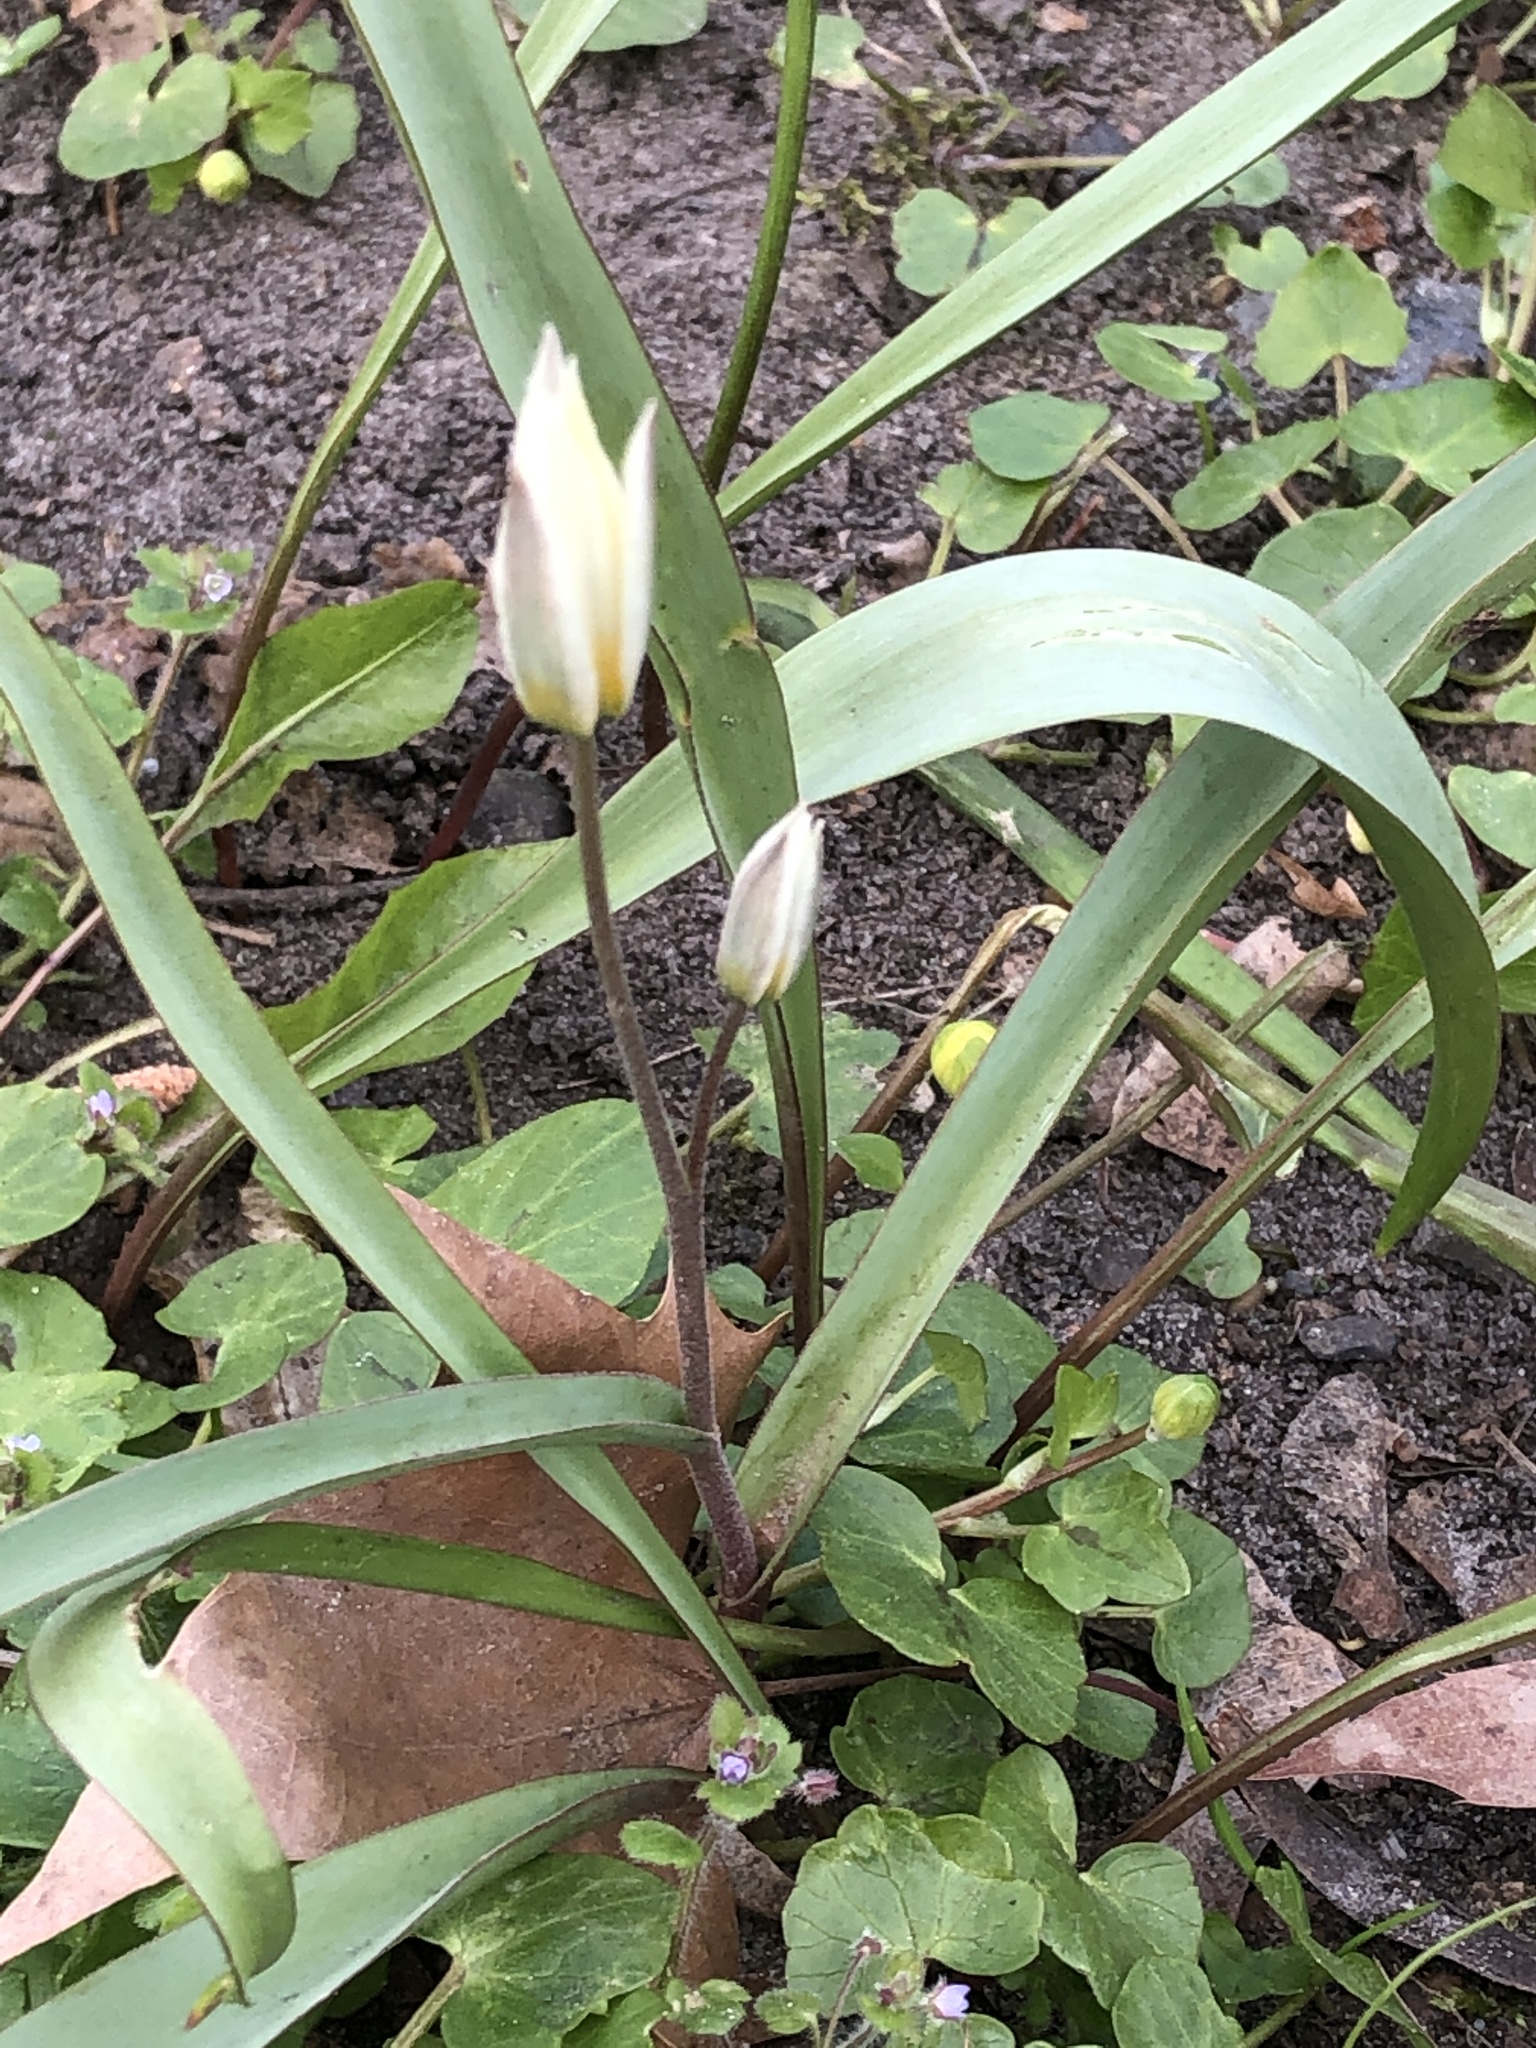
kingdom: Plantae
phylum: Tracheophyta
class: Liliopsida
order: Liliales
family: Liliaceae
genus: Tulipa
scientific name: Tulipa bifloriformis
